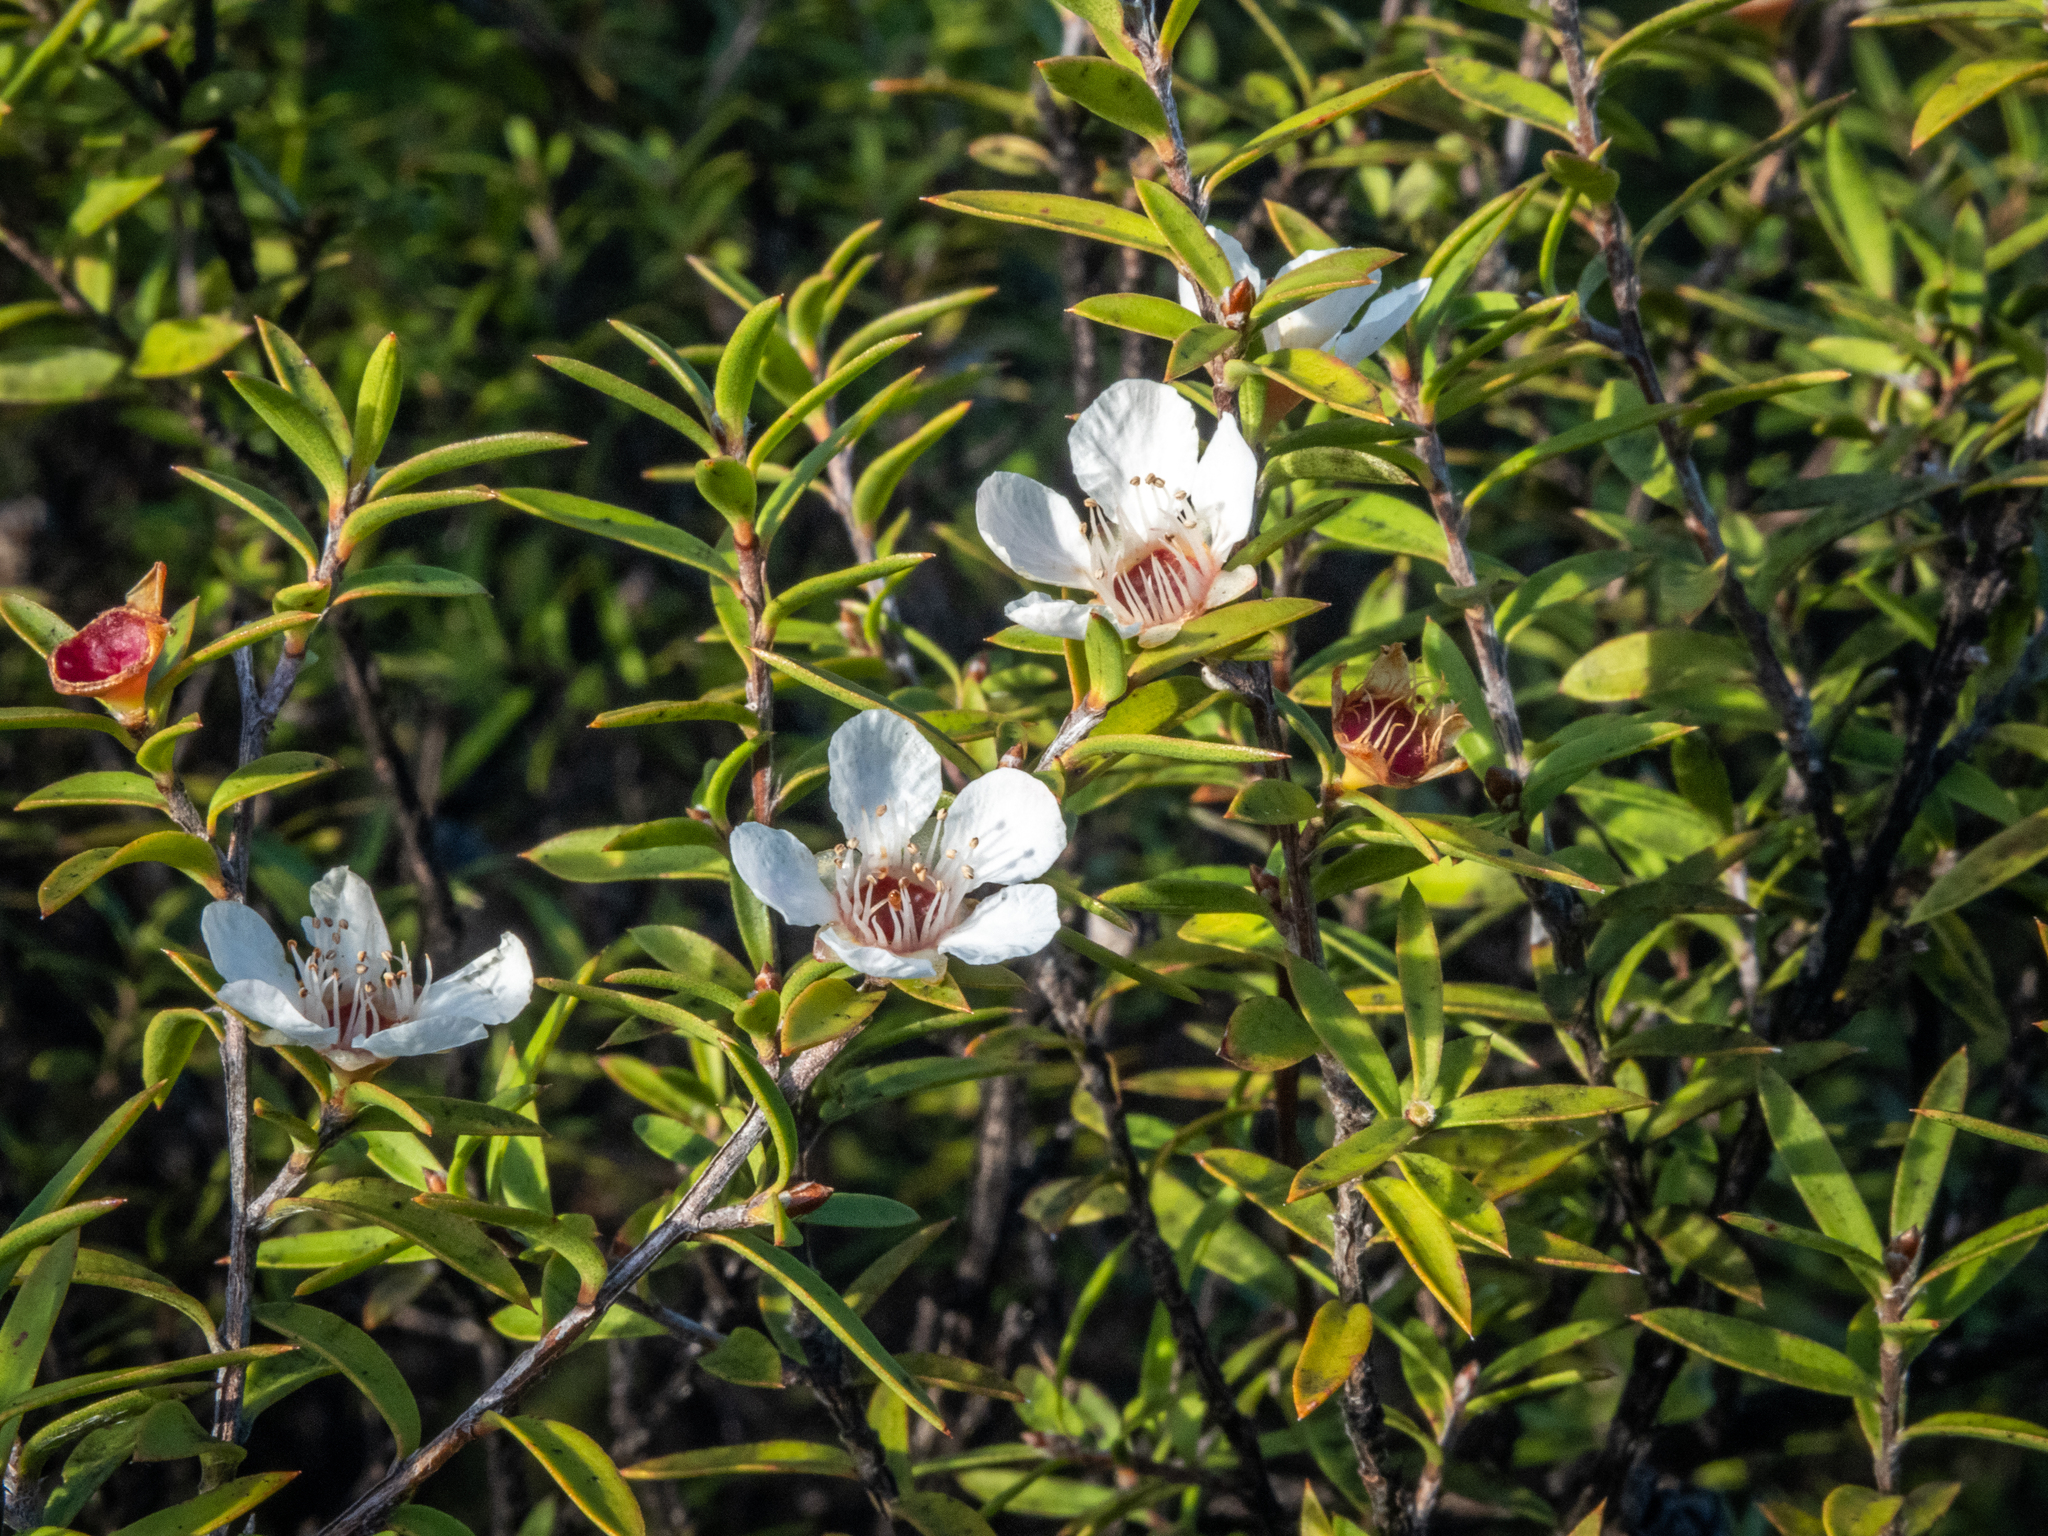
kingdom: Plantae
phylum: Tracheophyta
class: Magnoliopsida
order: Myrtales
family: Myrtaceae
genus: Leptospermum
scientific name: Leptospermum scoparium
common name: Broom tea-tree
